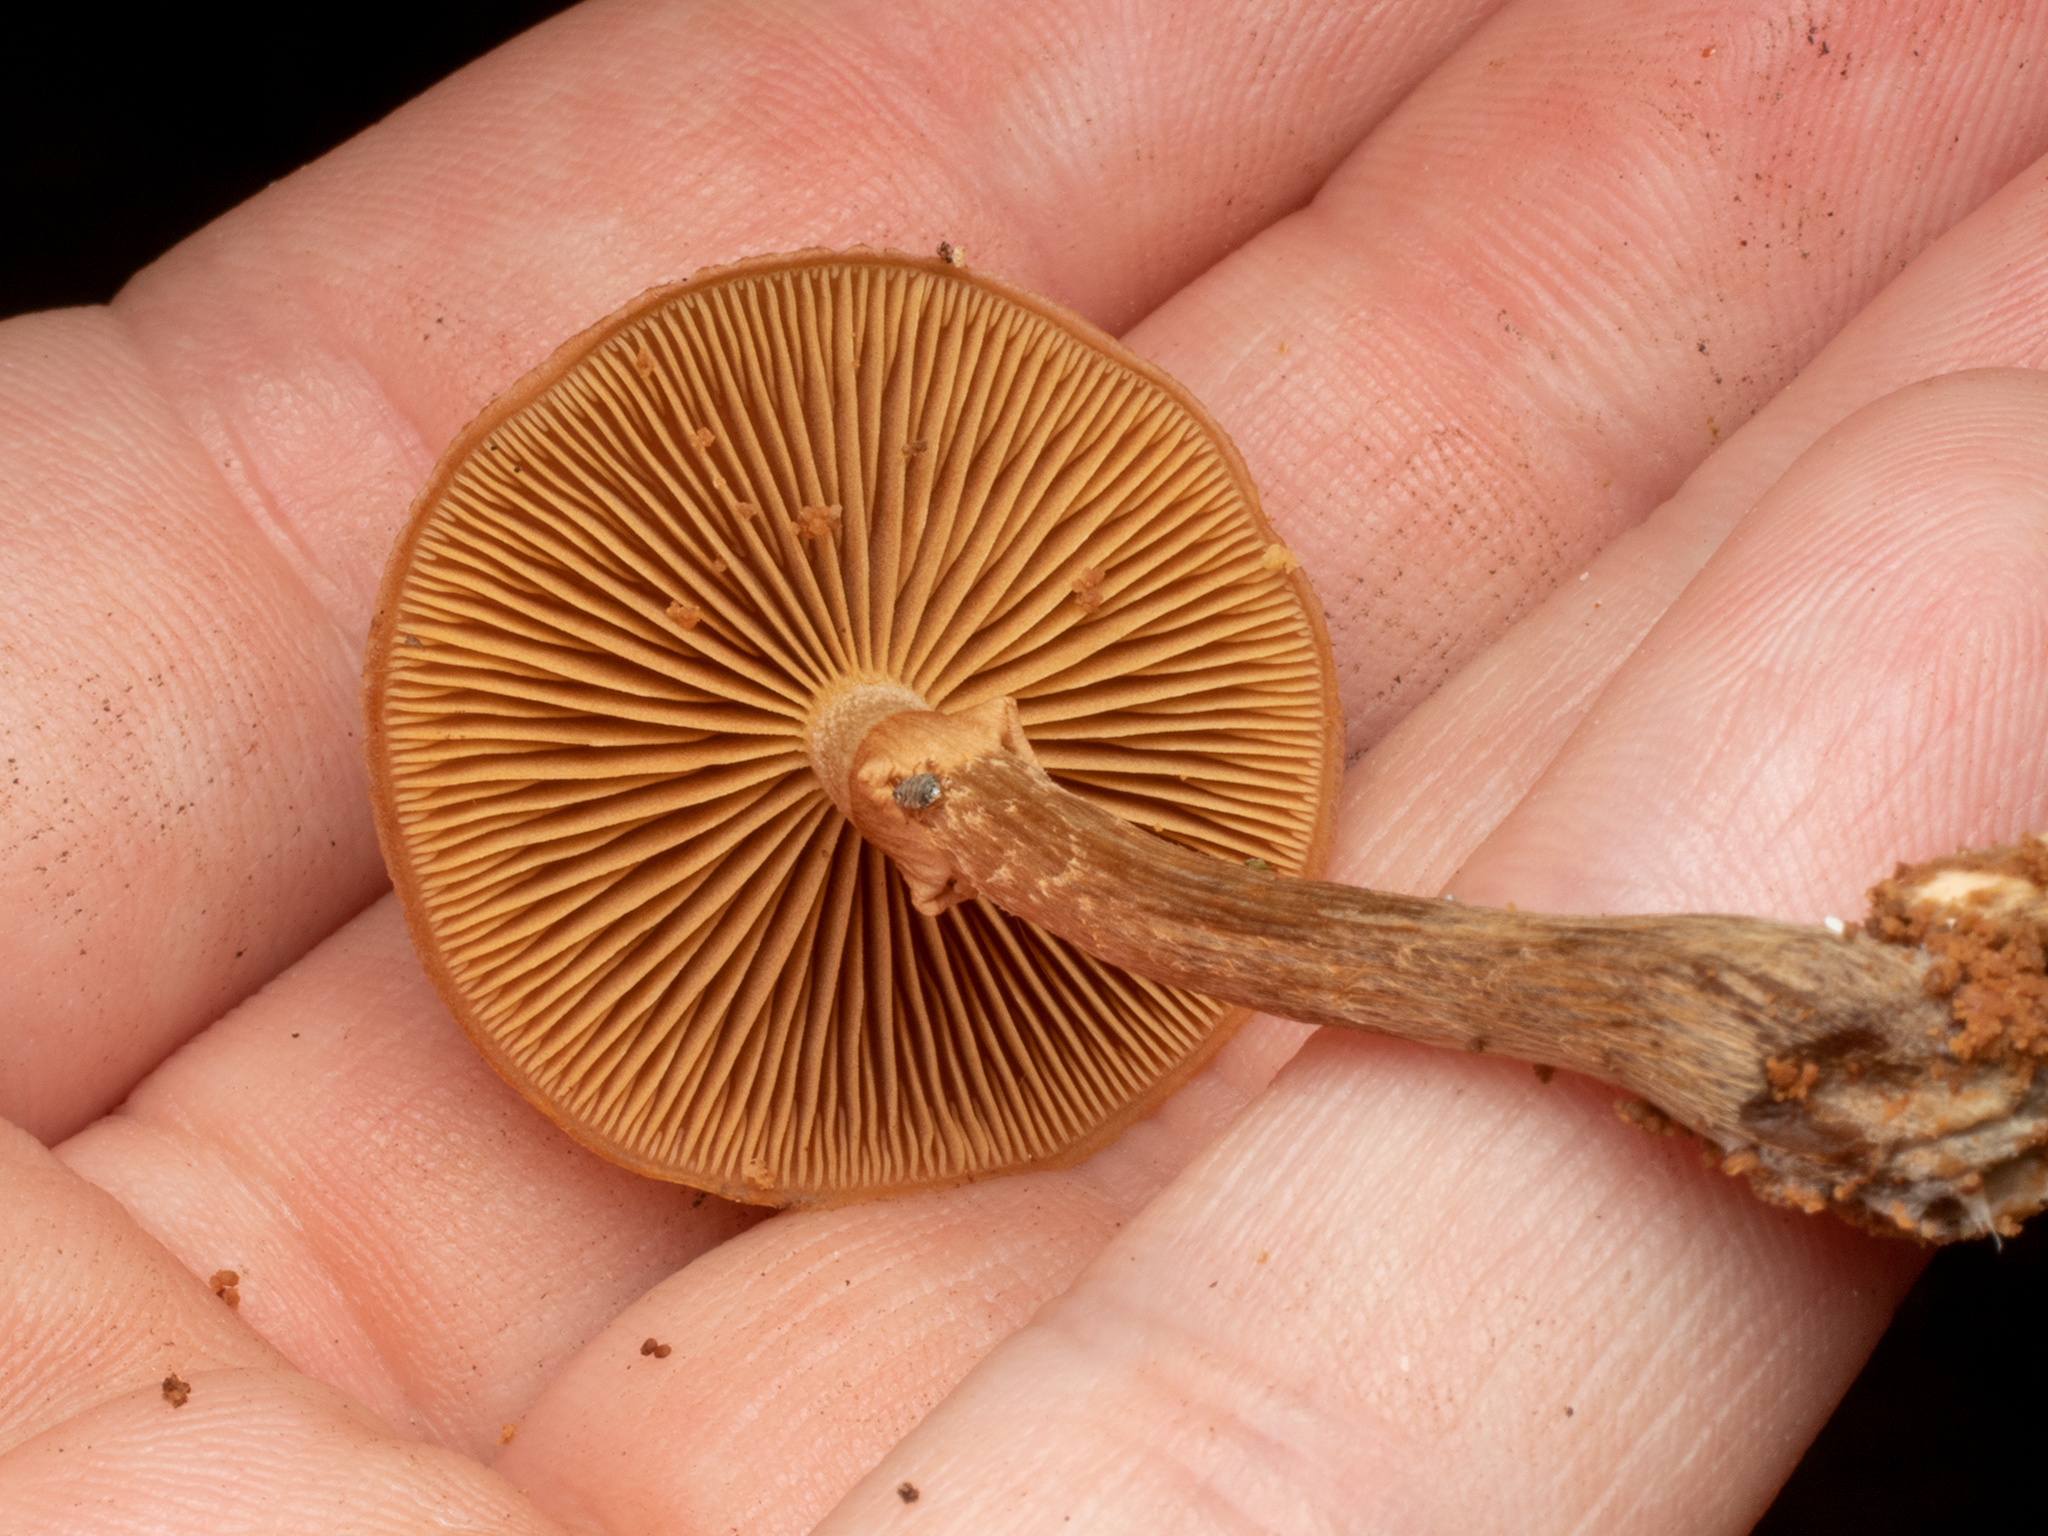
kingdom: Fungi
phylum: Basidiomycota
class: Agaricomycetes
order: Agaricales
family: Hymenogastraceae
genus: Galerina
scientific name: Galerina patagonica
